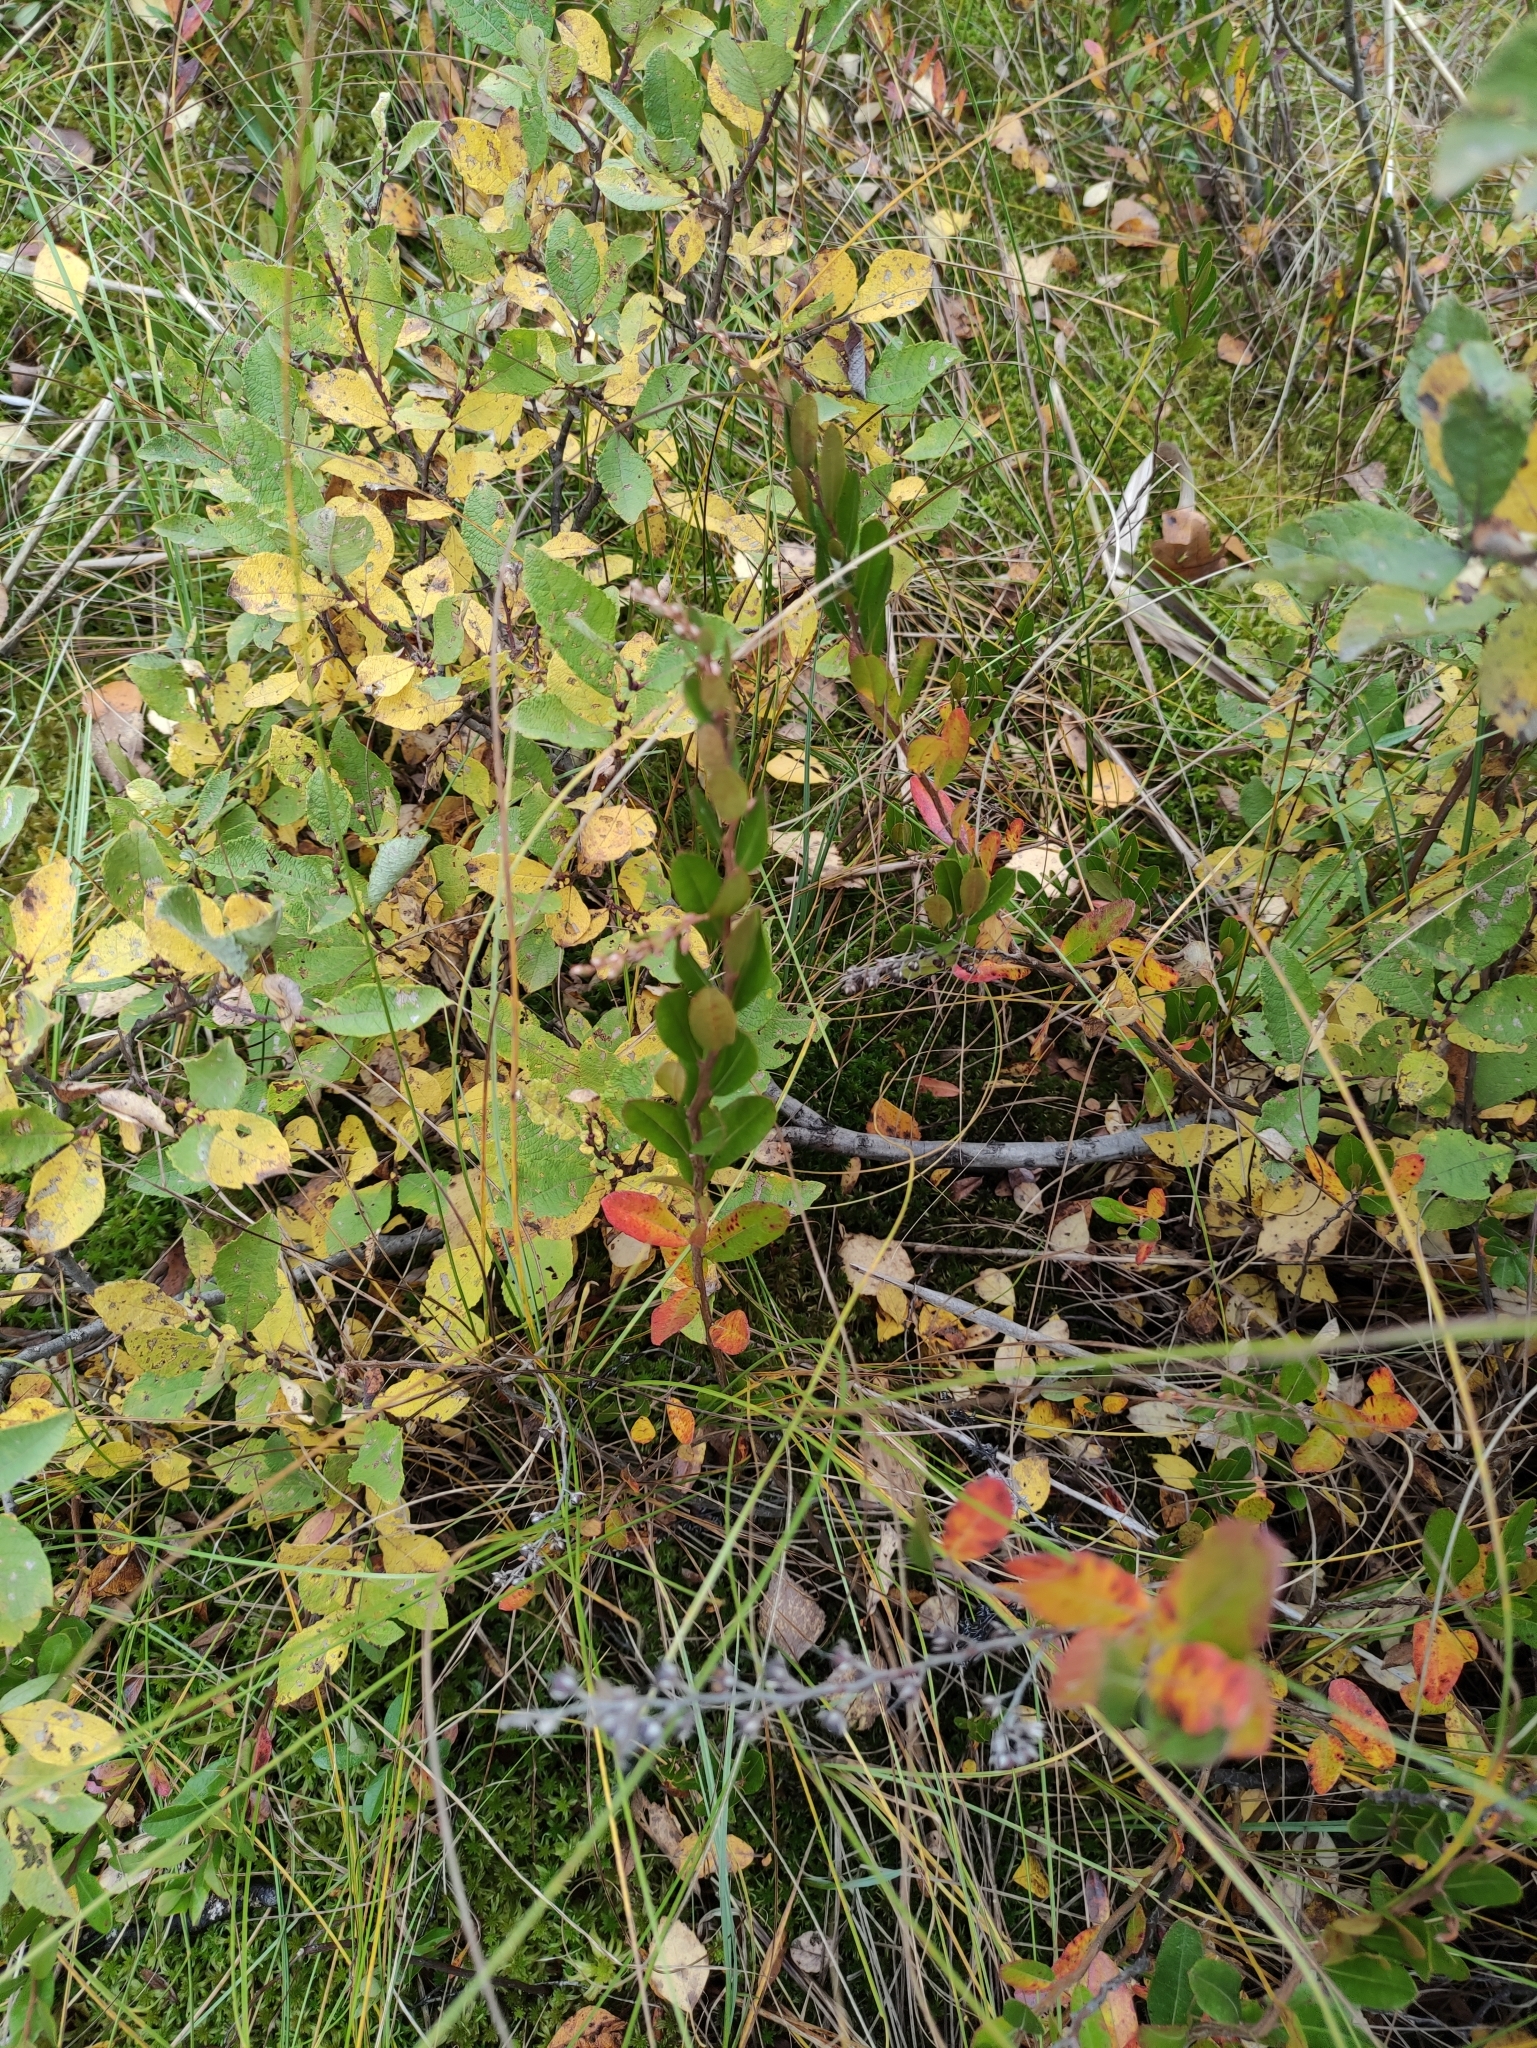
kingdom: Plantae
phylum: Tracheophyta
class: Magnoliopsida
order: Ericales
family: Ericaceae
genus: Chamaedaphne
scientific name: Chamaedaphne calyculata
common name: Leatherleaf
